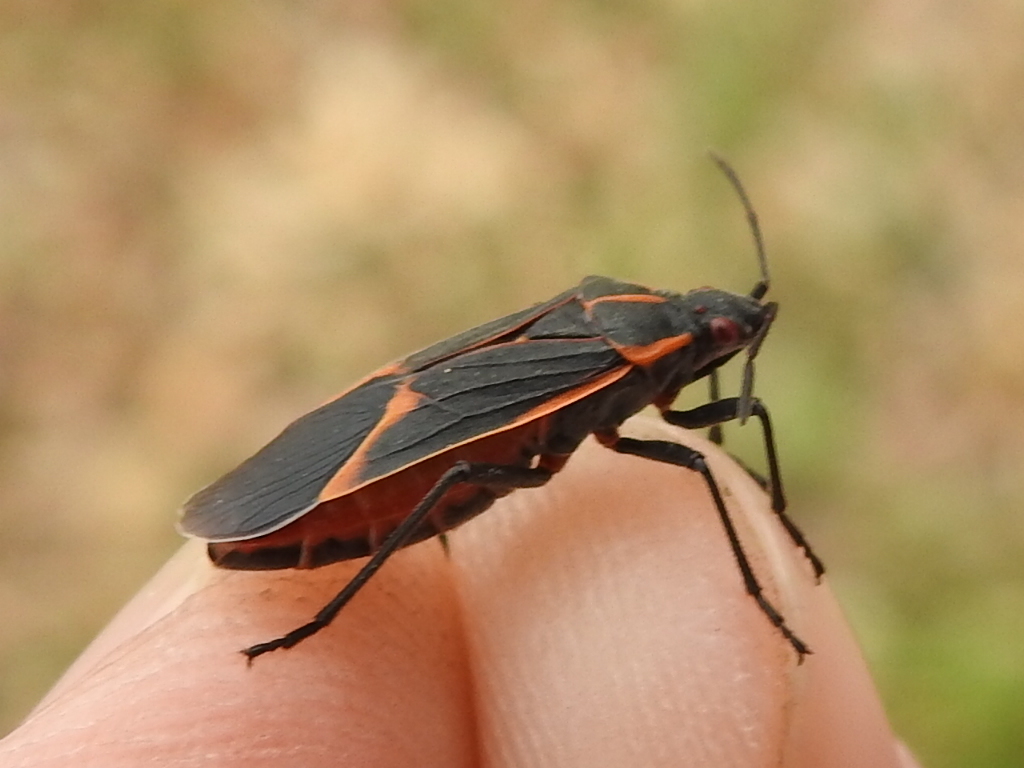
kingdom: Animalia
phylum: Arthropoda
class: Insecta
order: Hemiptera
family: Rhopalidae
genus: Boisea
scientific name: Boisea trivittata
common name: Boxelder bug
